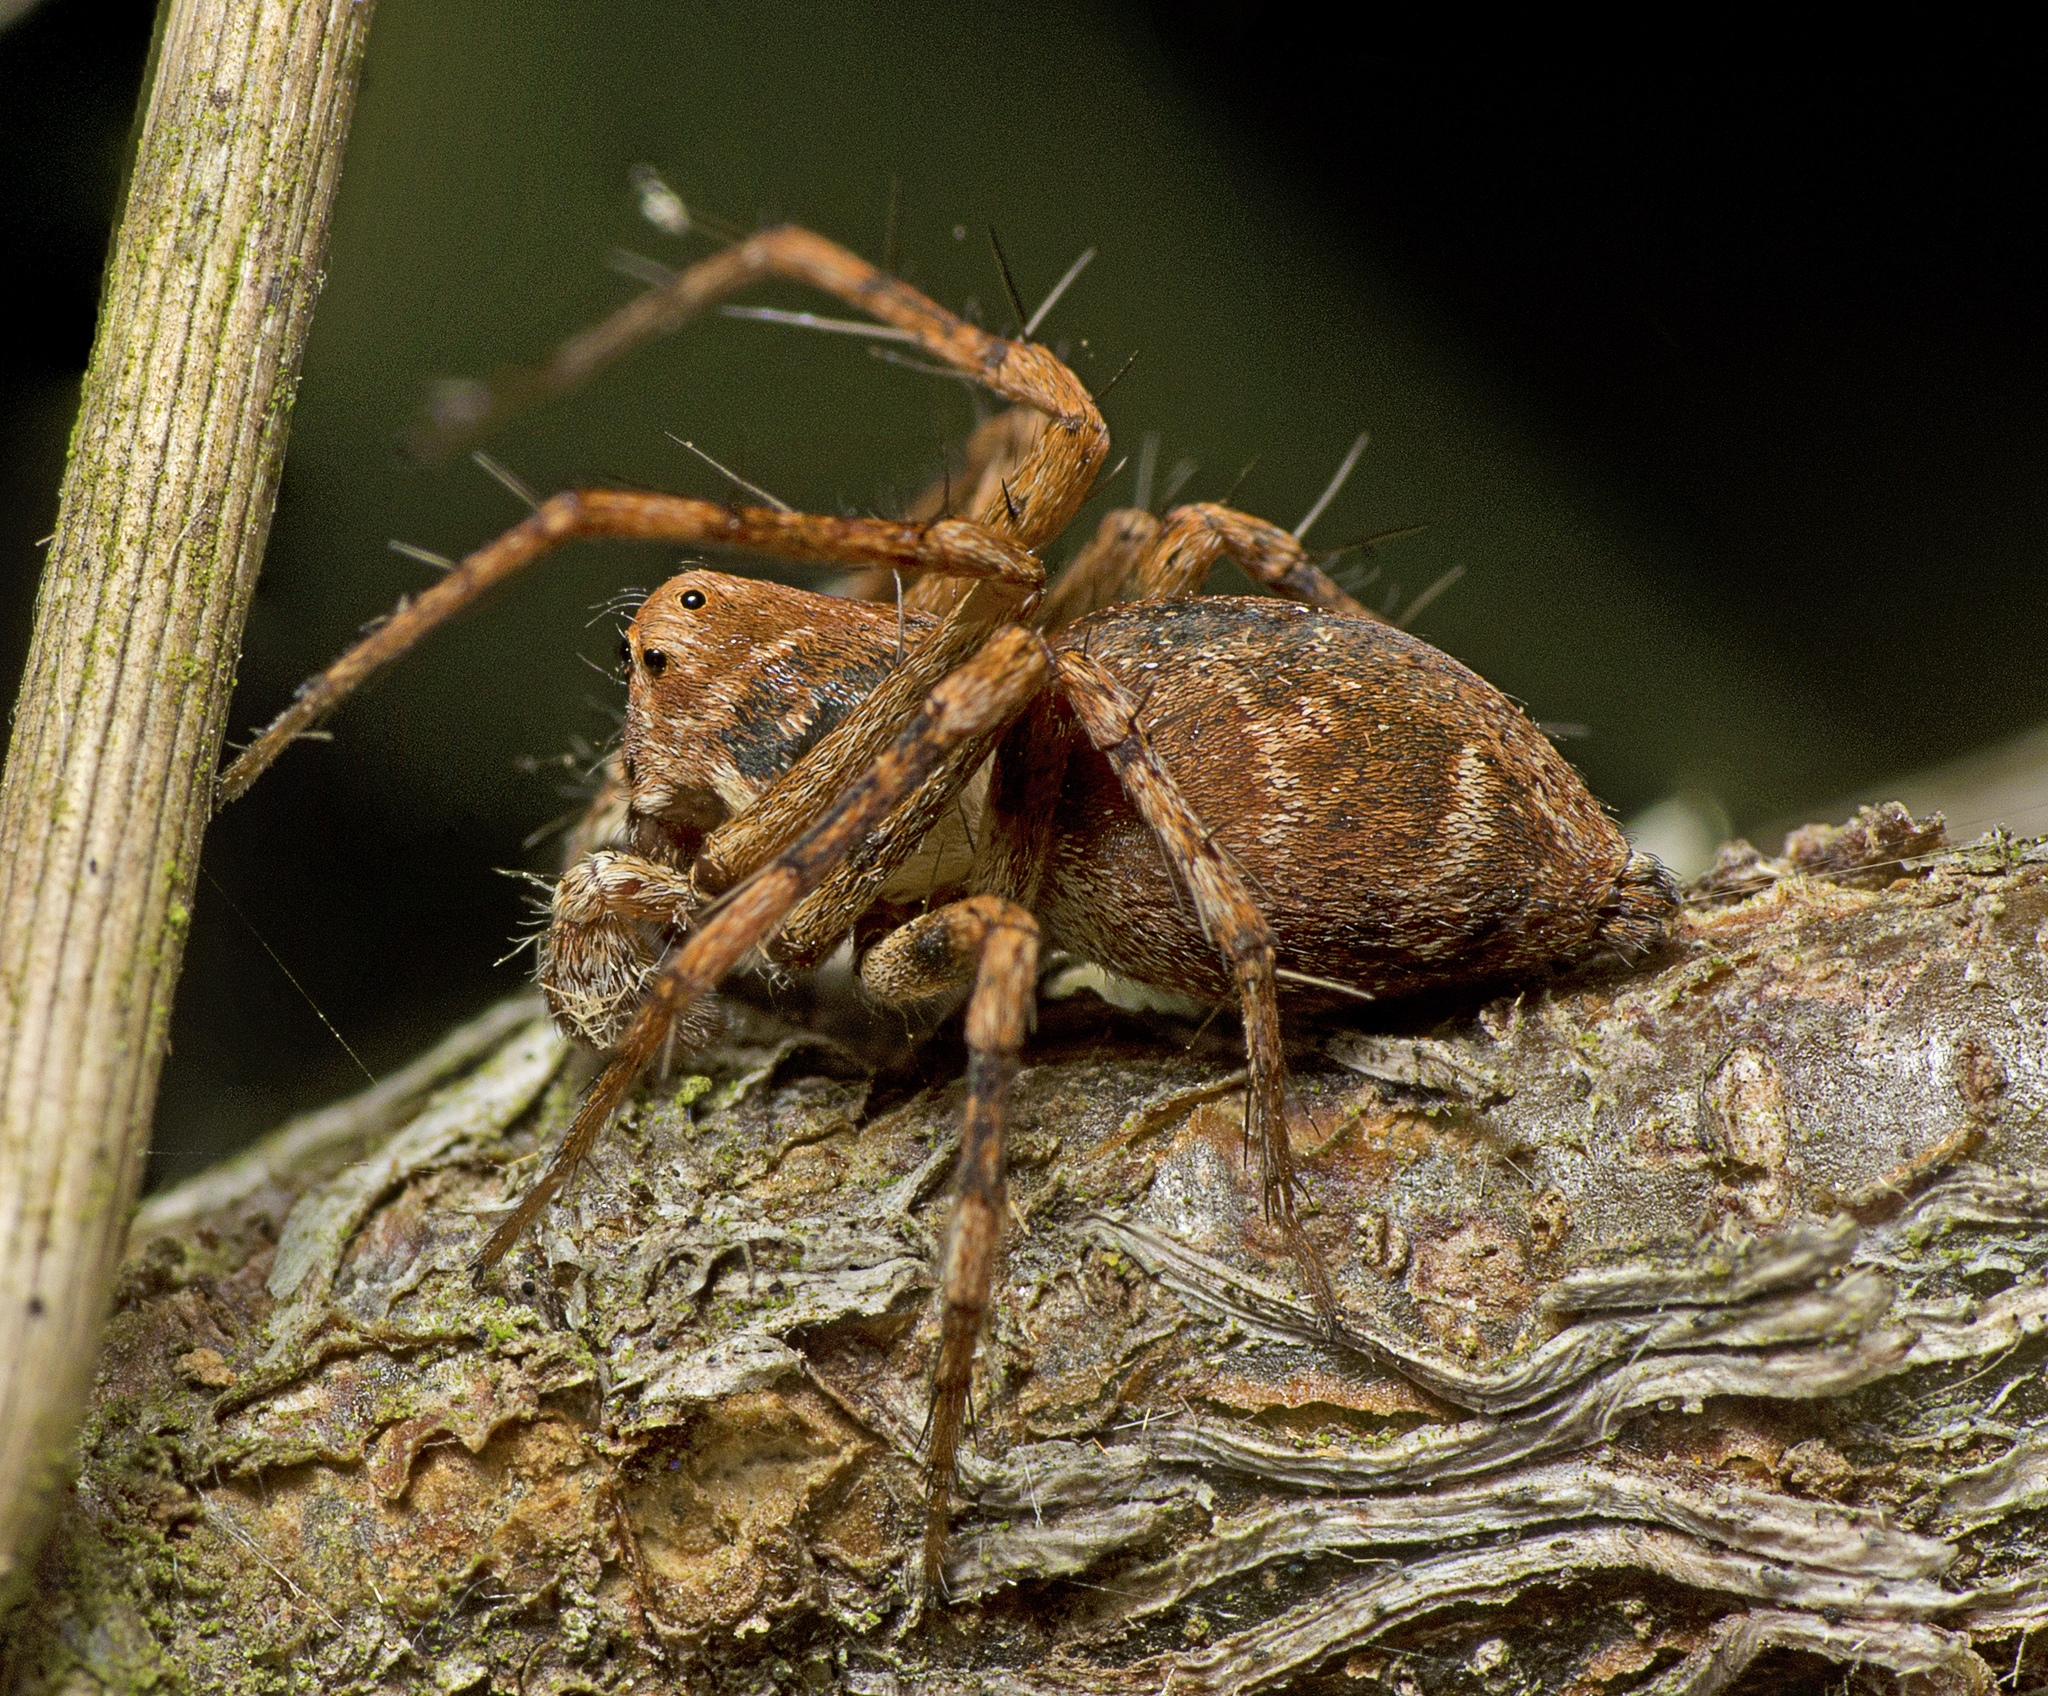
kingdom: Animalia
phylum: Arthropoda
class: Arachnida
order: Araneae
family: Oxyopidae
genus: Oxyopes
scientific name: Oxyopes variabilis
